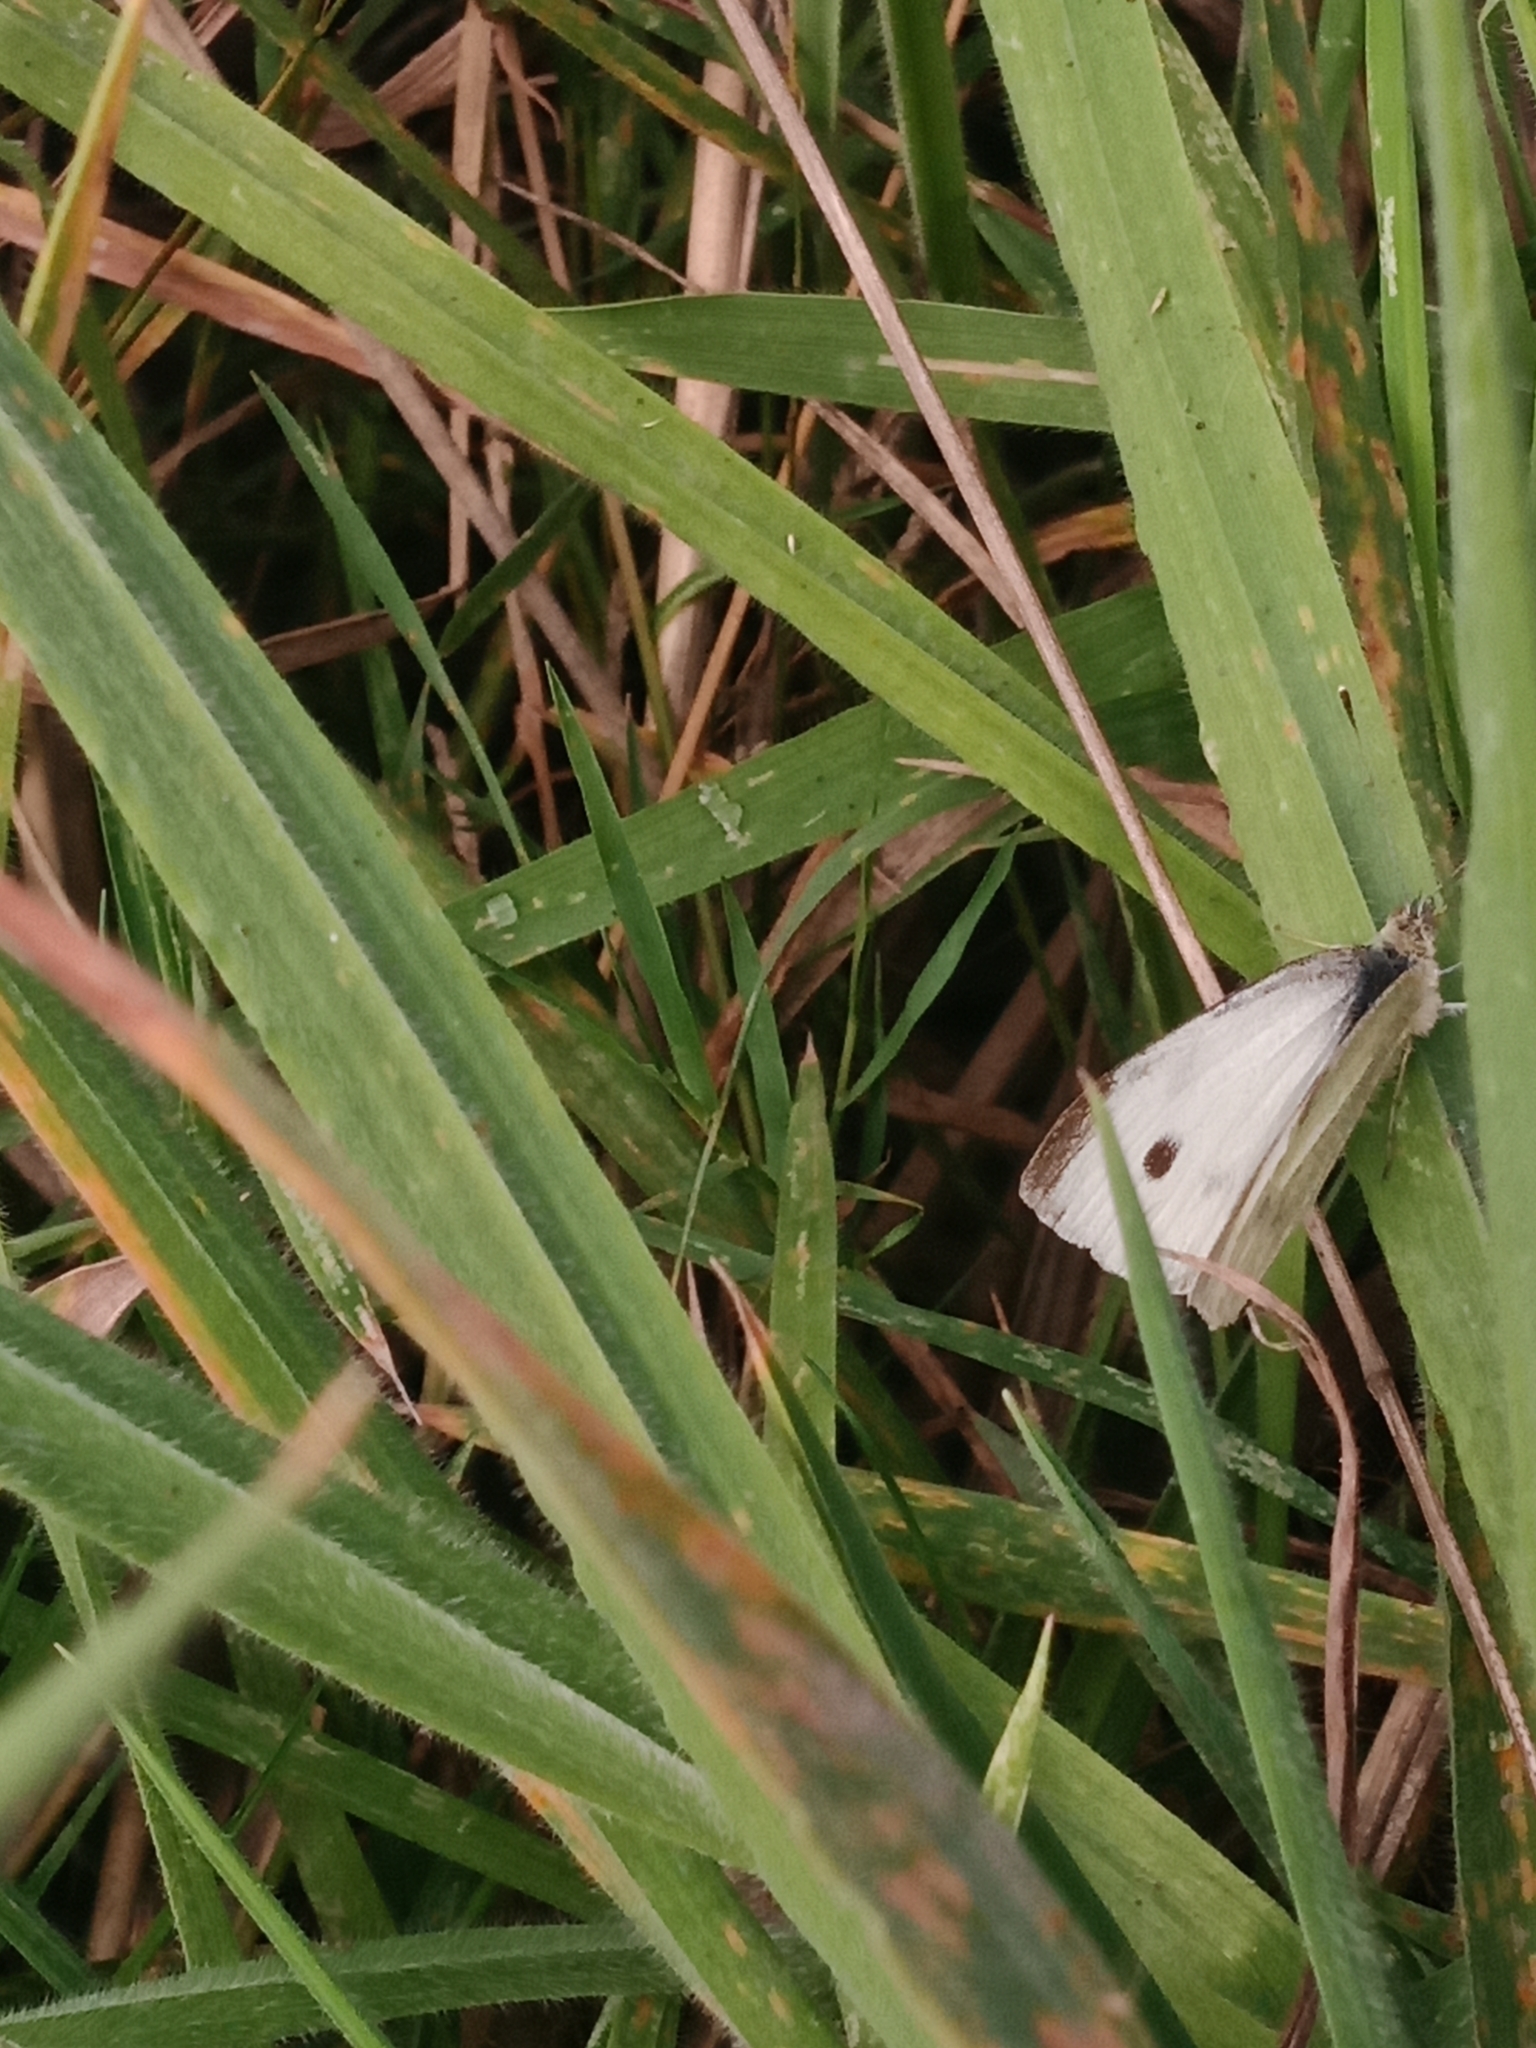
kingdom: Animalia
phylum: Arthropoda
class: Insecta
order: Lepidoptera
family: Pieridae
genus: Pieris
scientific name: Pieris rapae
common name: Small white
